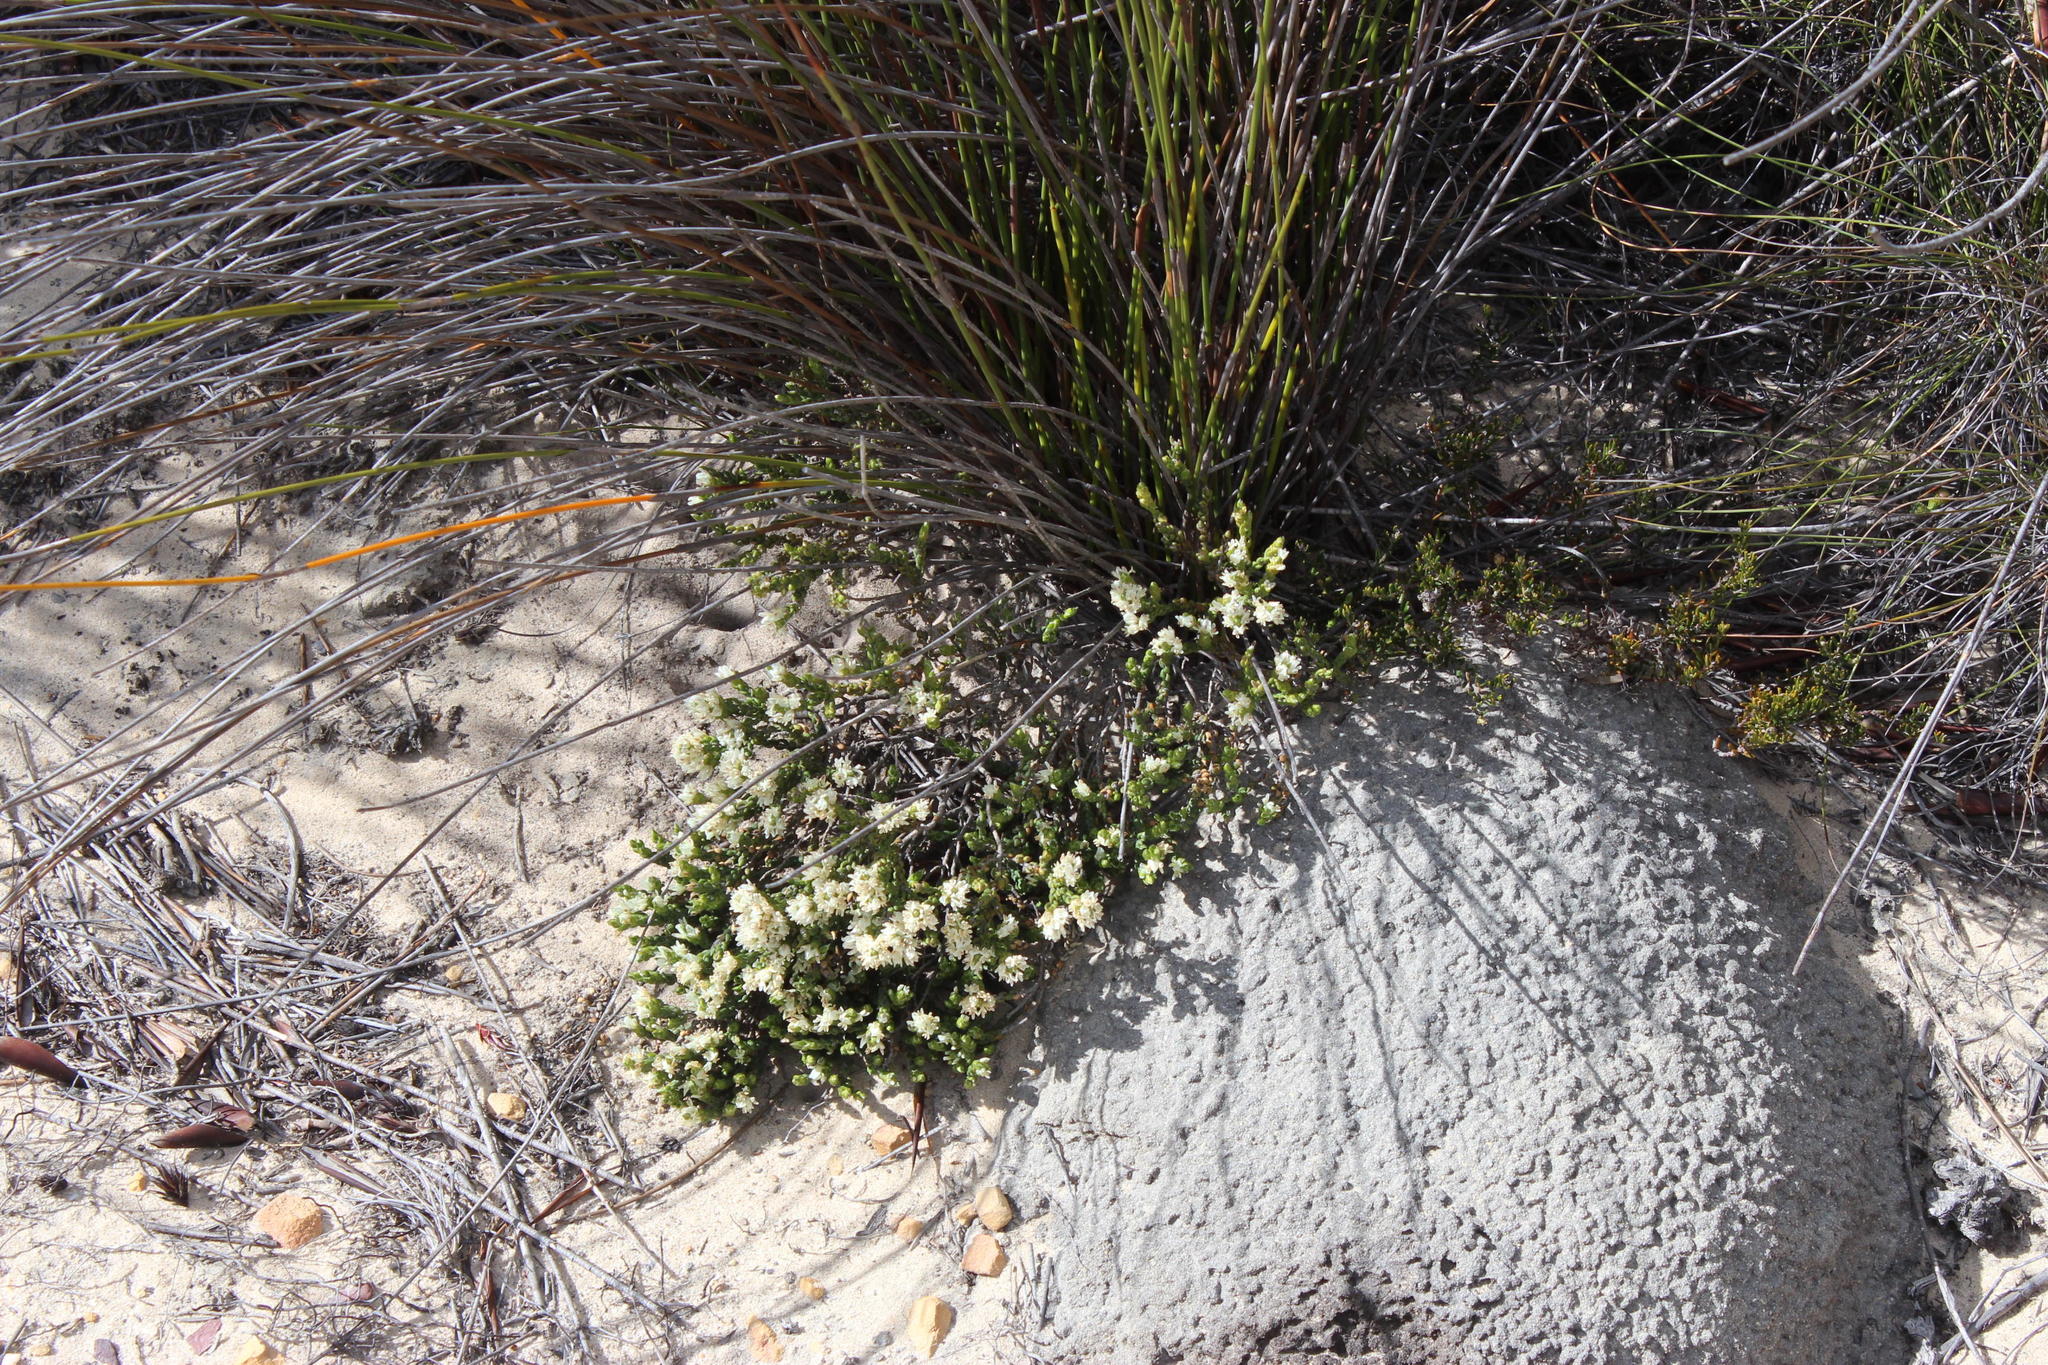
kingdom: Plantae
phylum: Tracheophyta
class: Magnoliopsida
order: Fabales
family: Fabaceae
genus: Amphithalea
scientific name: Amphithalea ciliaris
